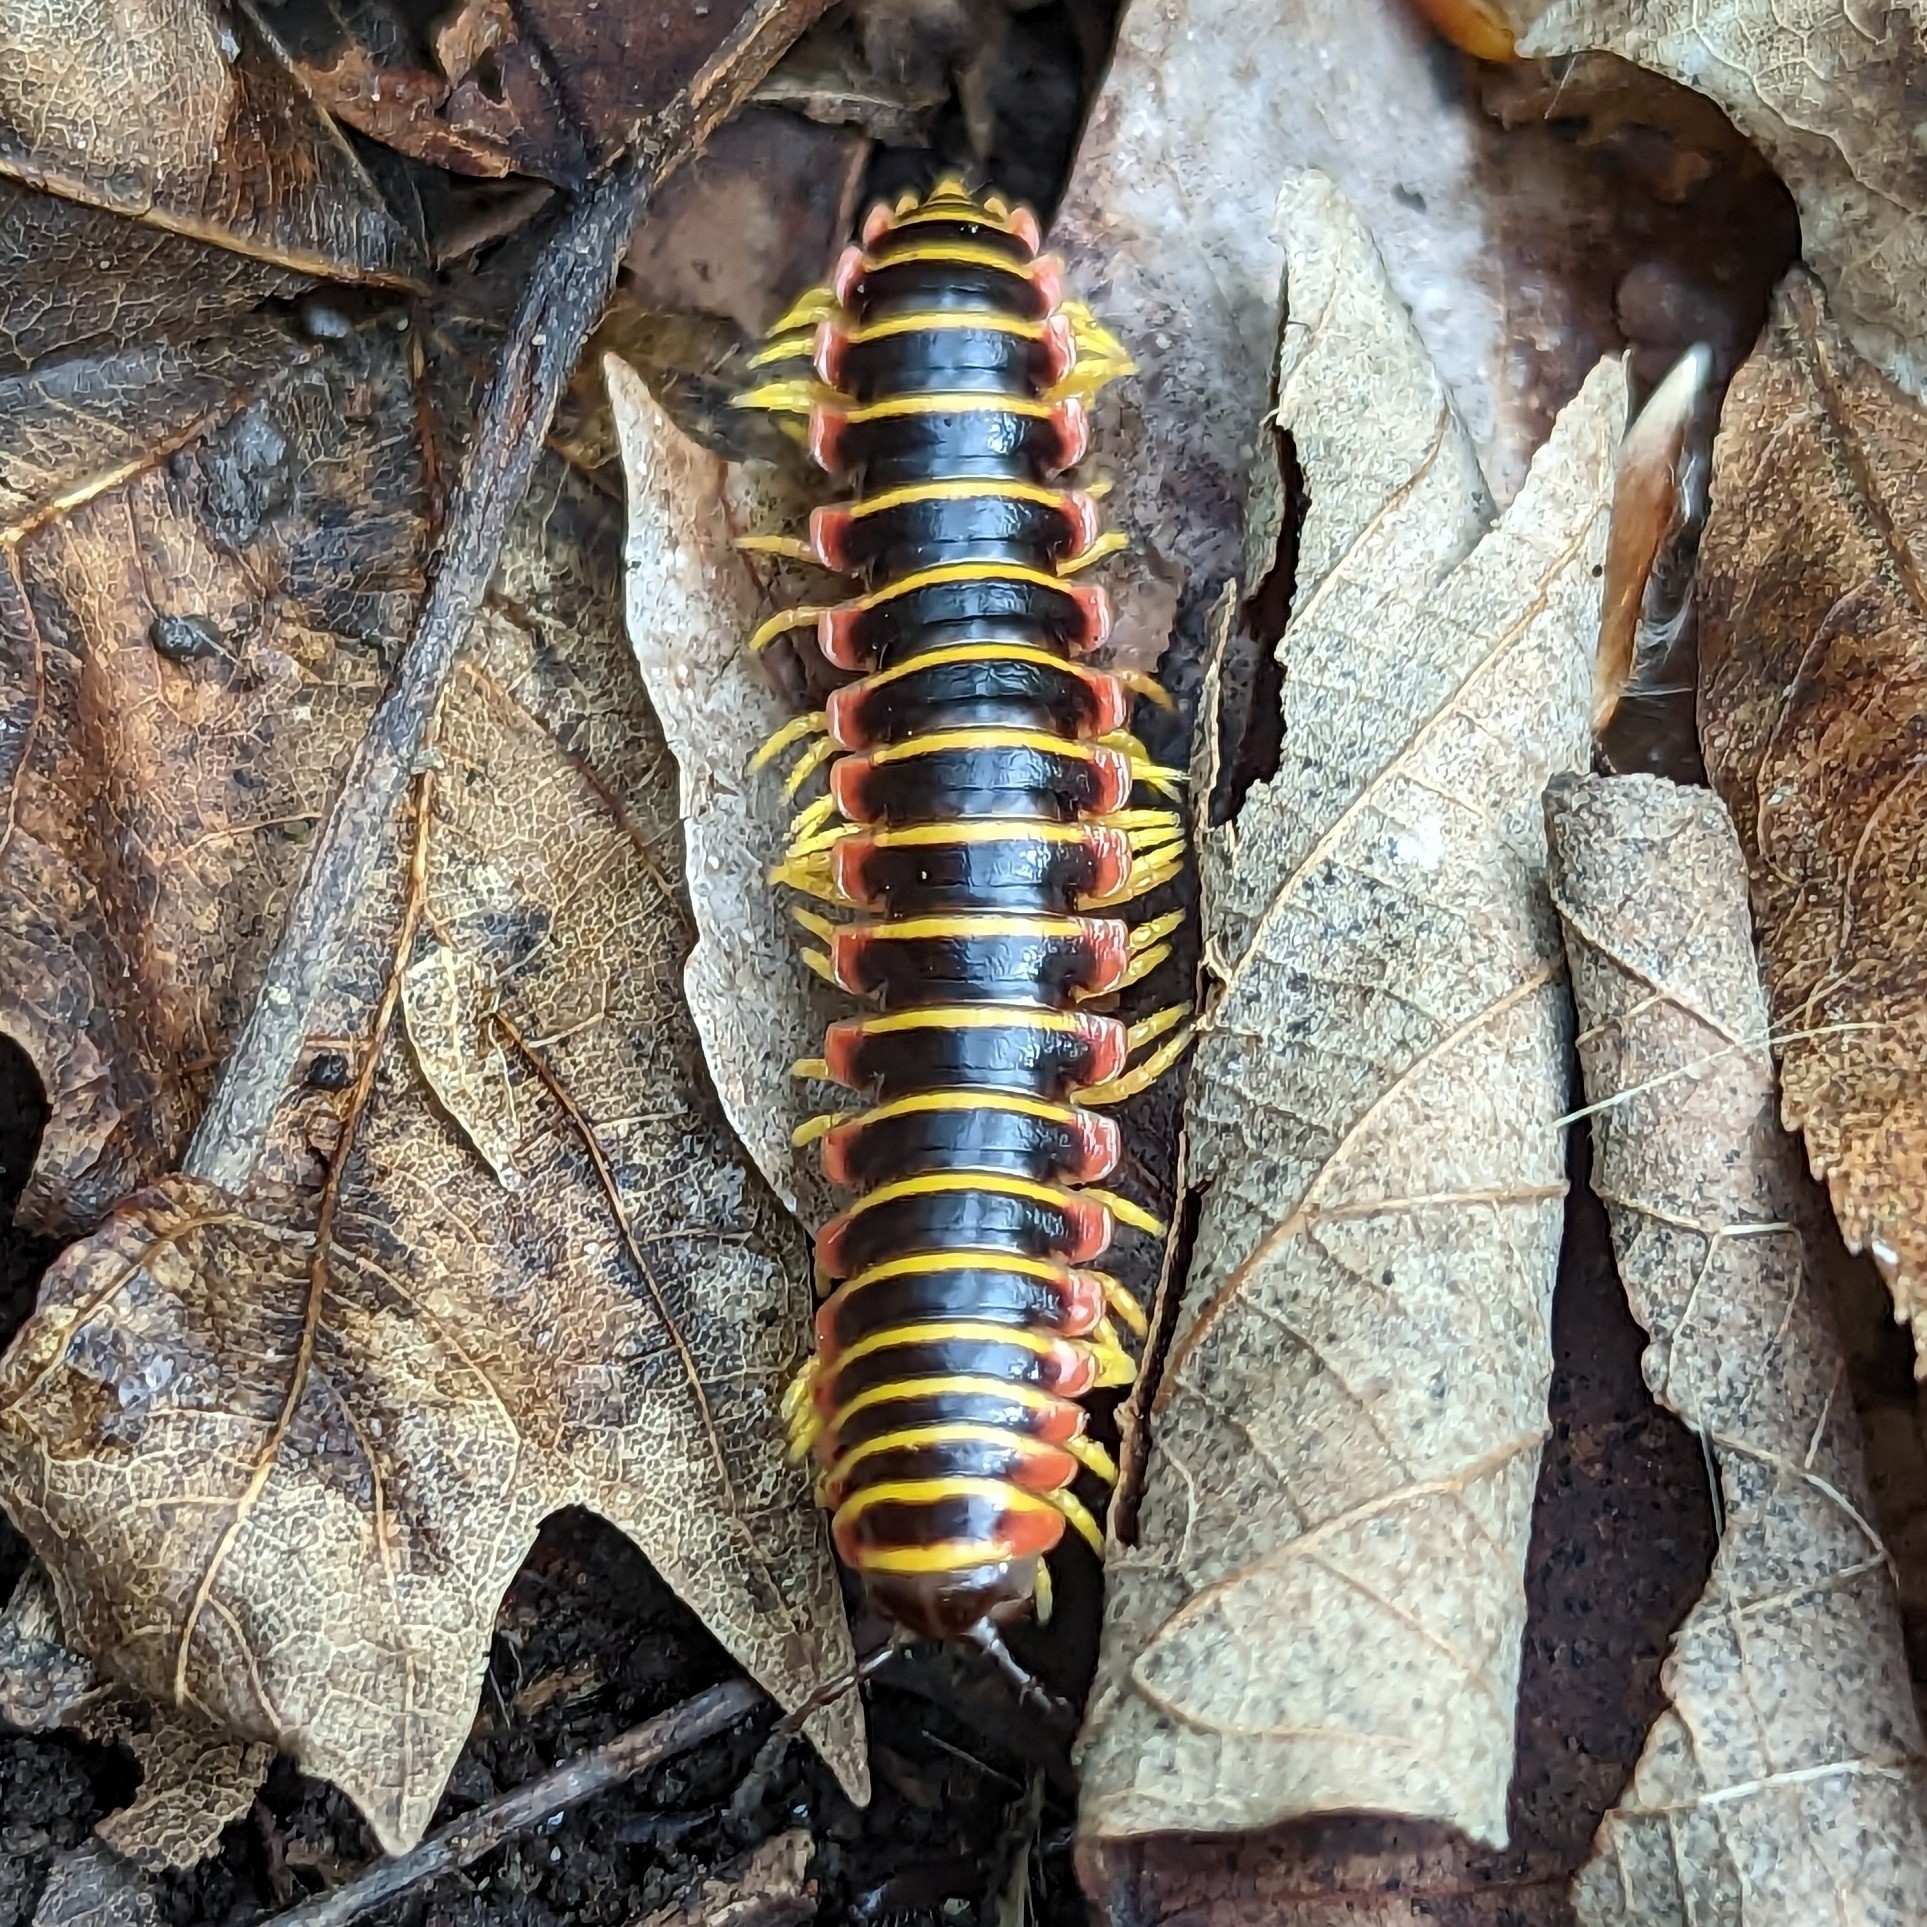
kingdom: Animalia
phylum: Arthropoda
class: Diplopoda
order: Polydesmida
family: Xystodesmidae
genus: Apheloria
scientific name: Apheloria virginiensis
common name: Black-and-gold flat millipede
